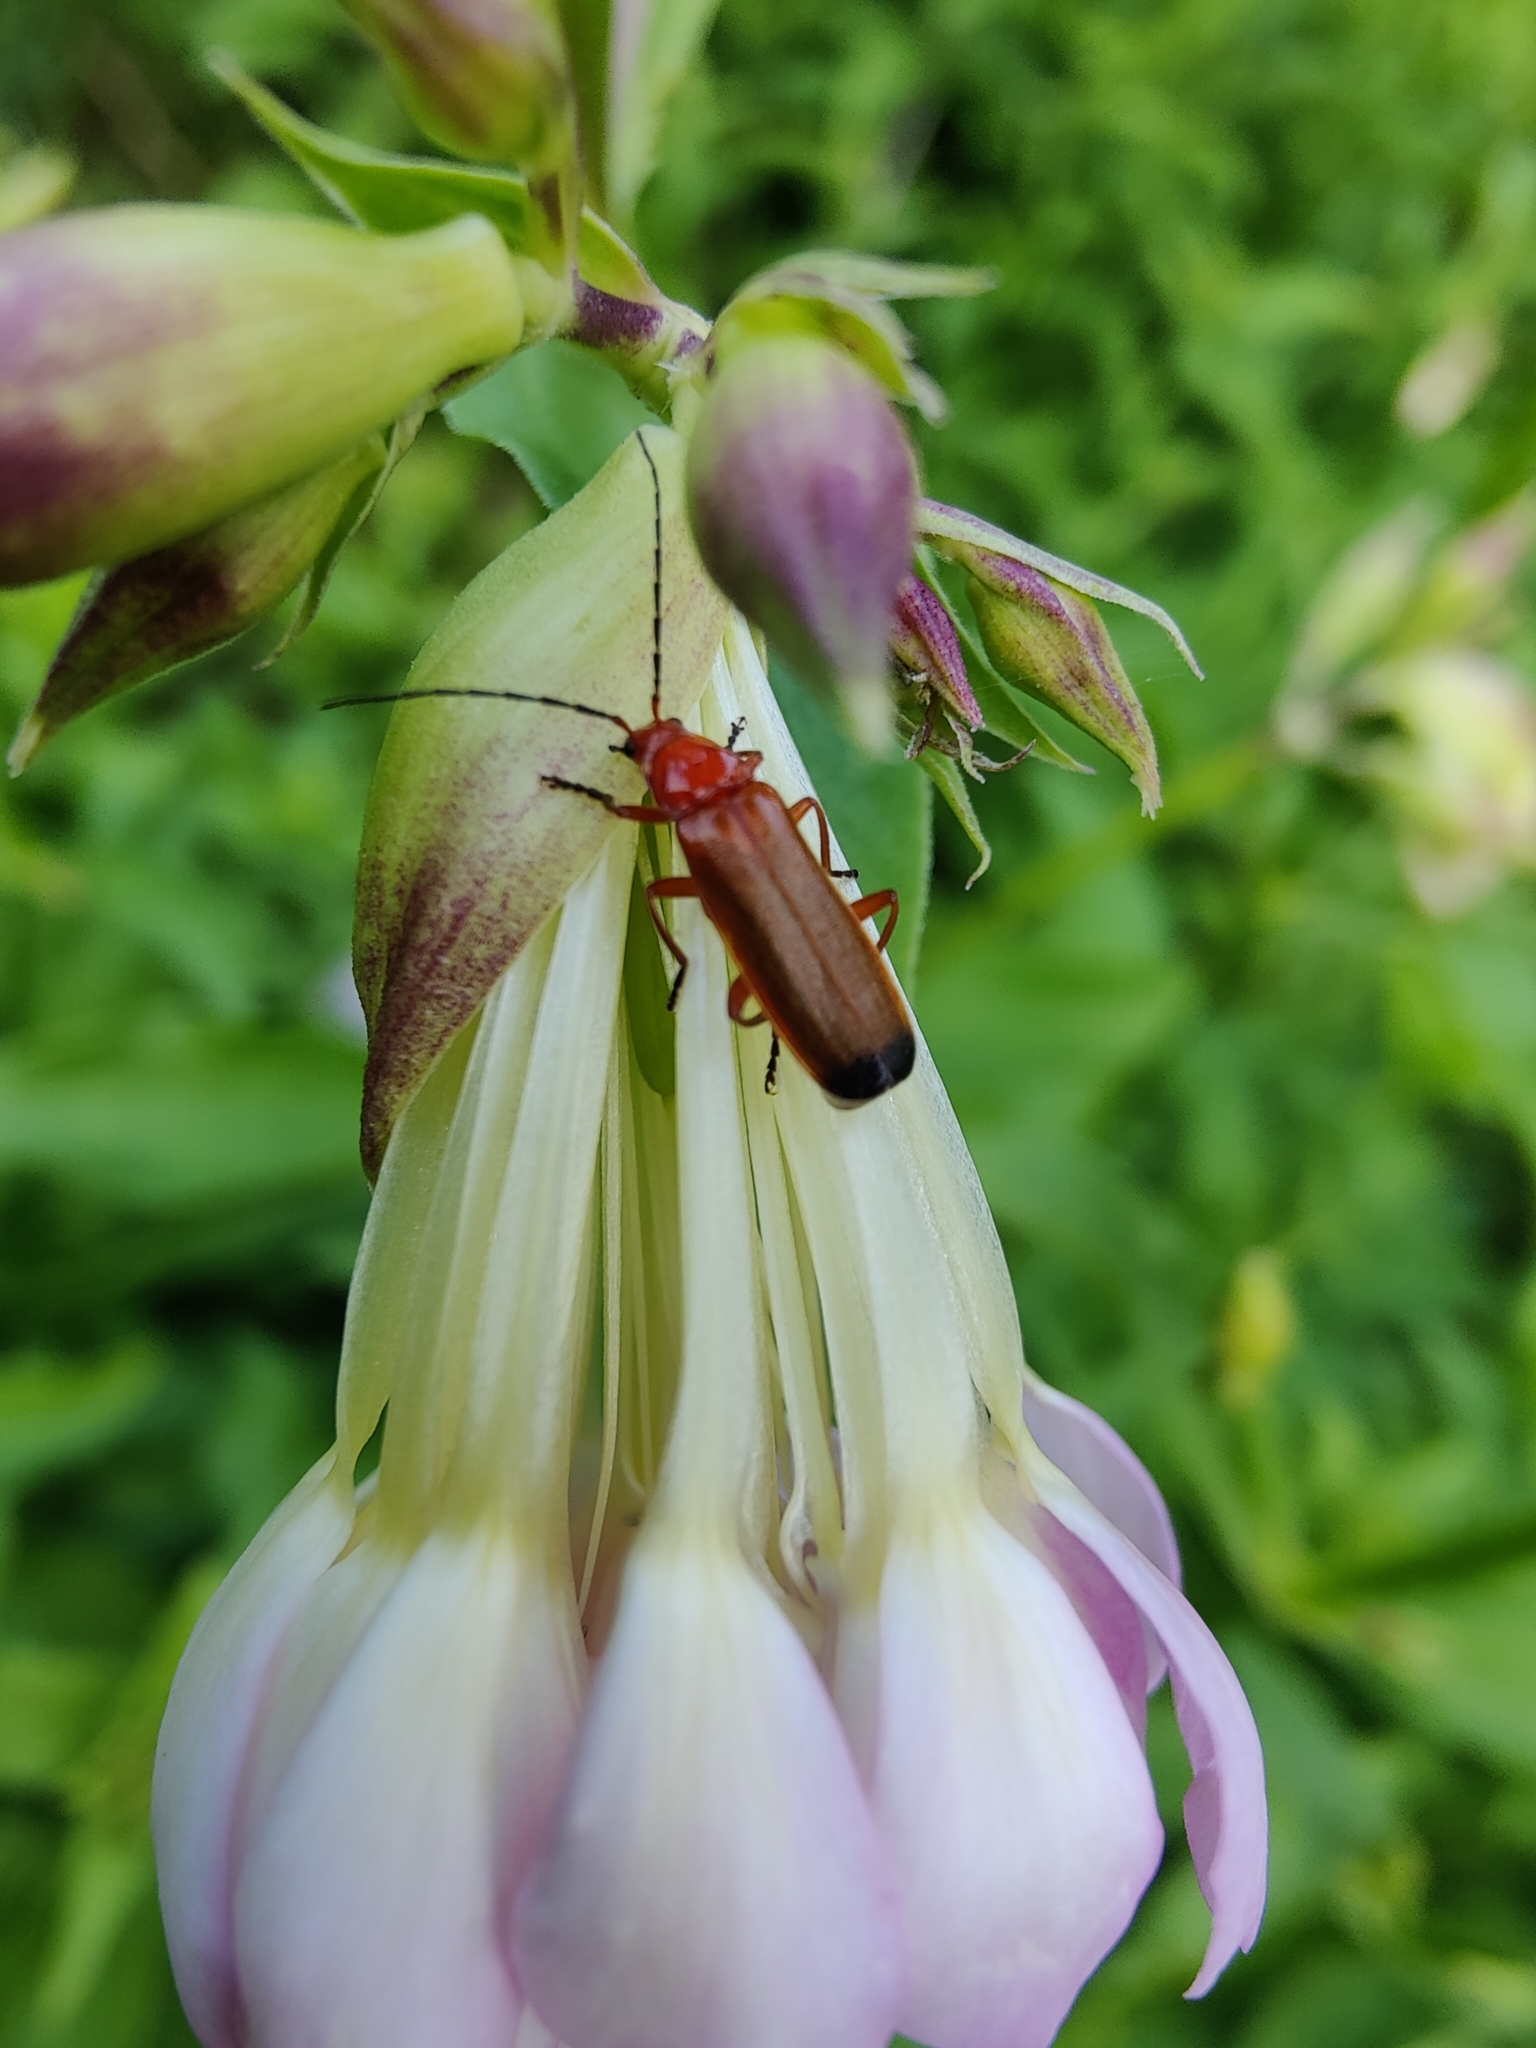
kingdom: Animalia
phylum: Arthropoda
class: Insecta
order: Coleoptera
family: Cantharidae
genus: Rhagonycha
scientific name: Rhagonycha fulva
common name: Common red soldier beetle
